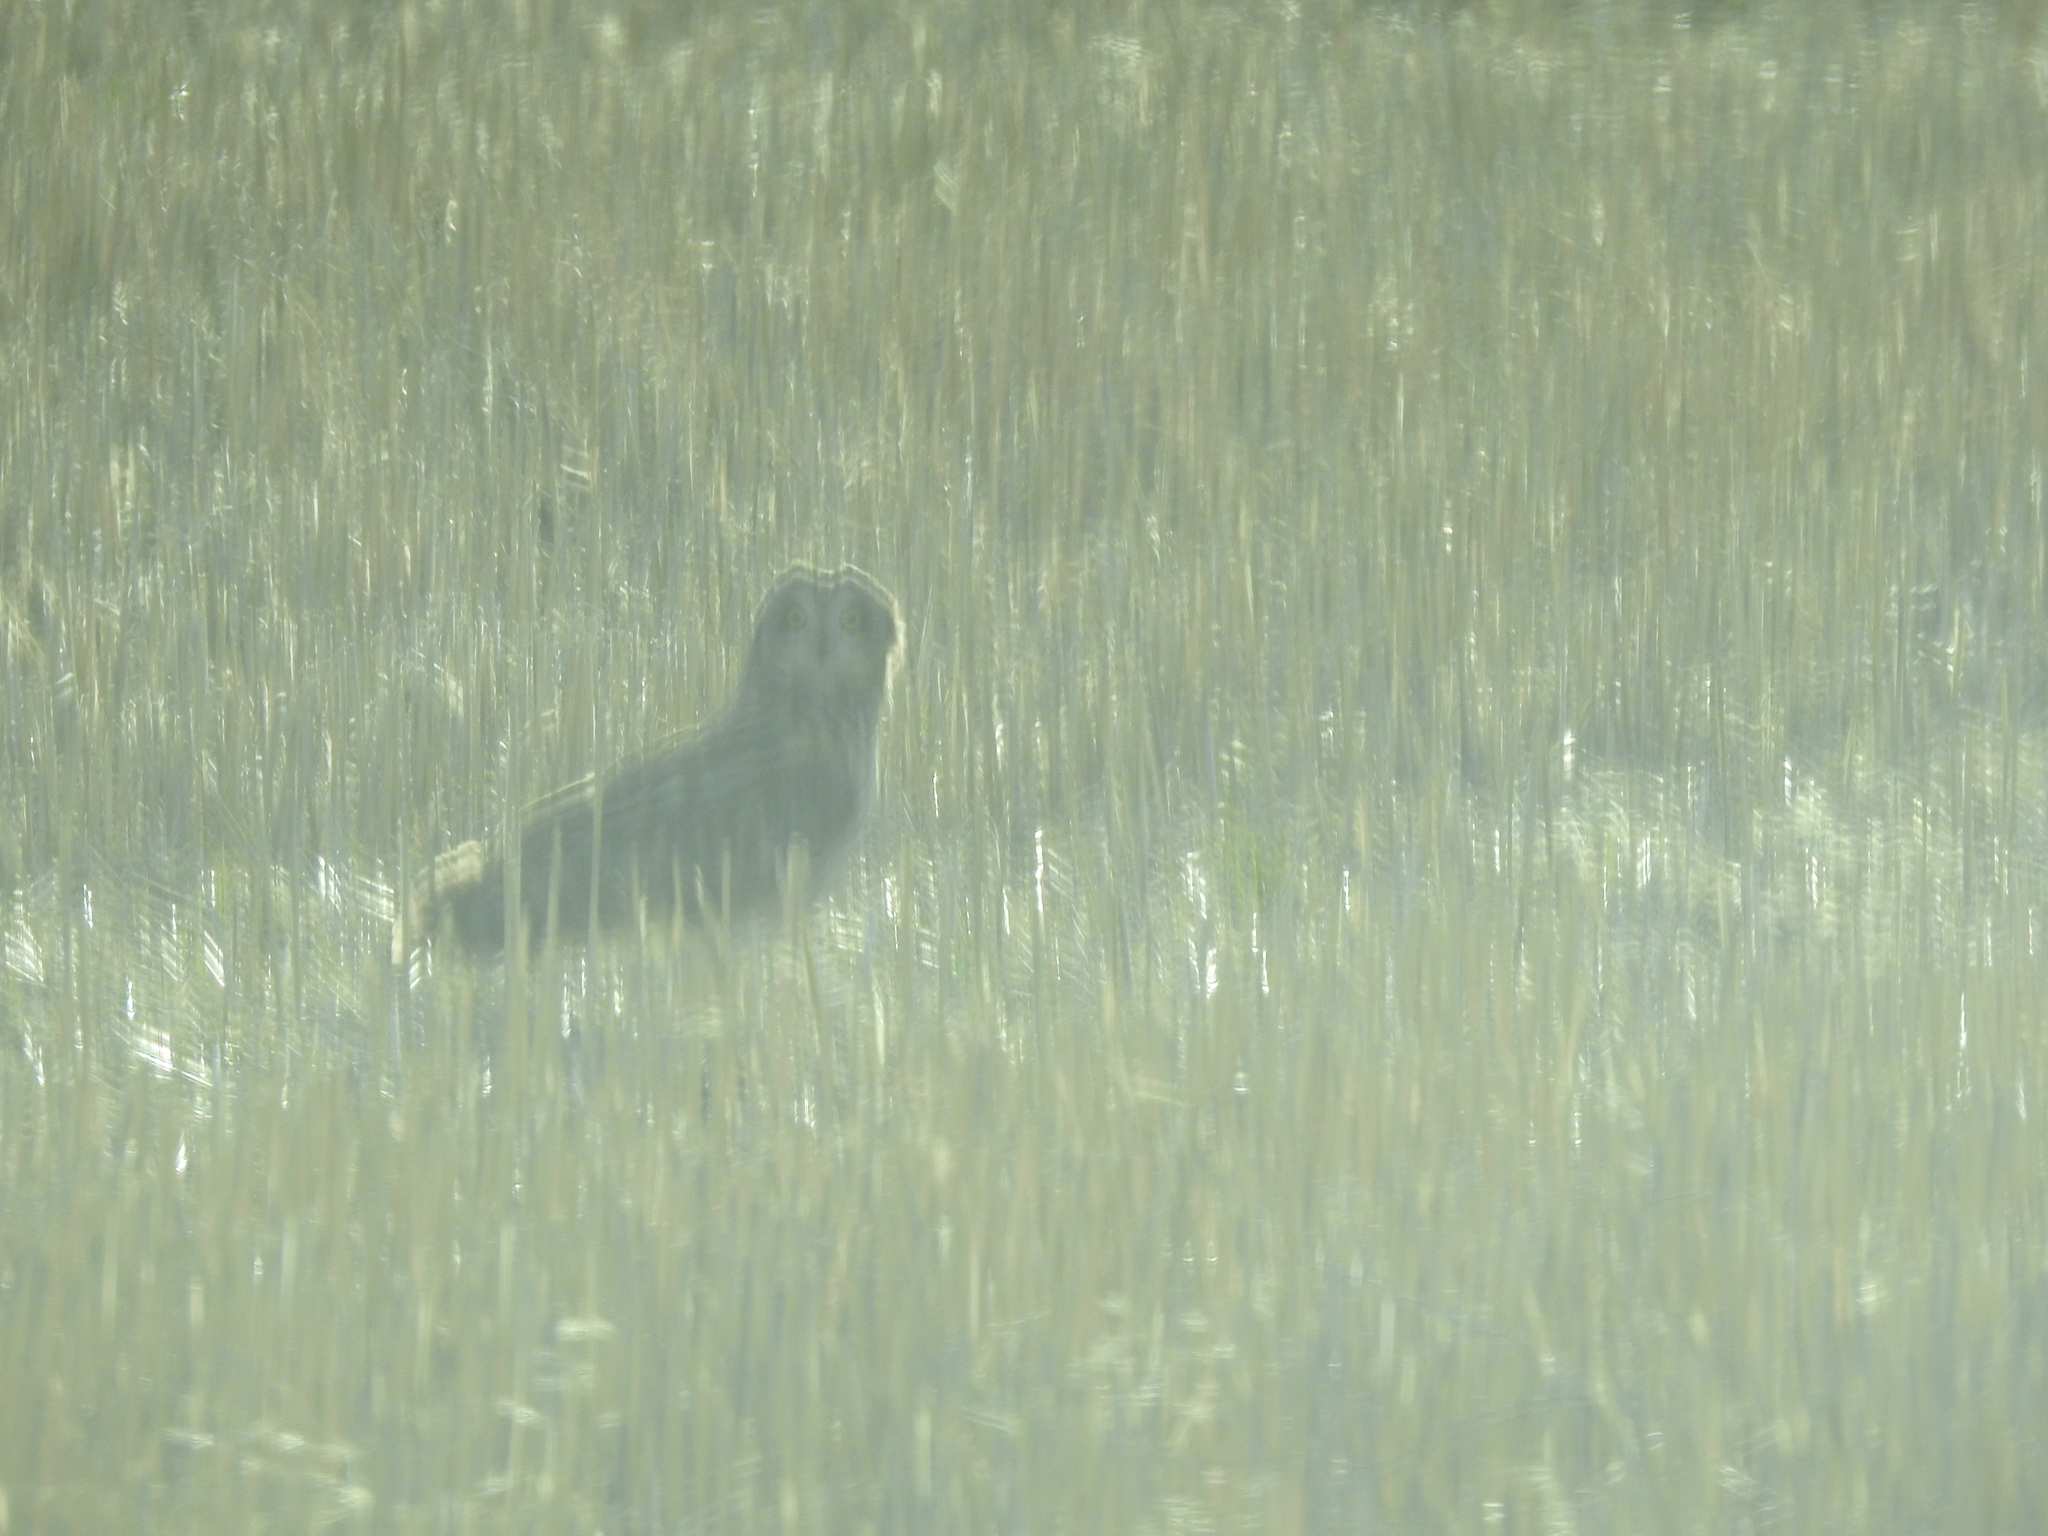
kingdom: Animalia
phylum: Chordata
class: Aves
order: Strigiformes
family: Strigidae
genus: Asio
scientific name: Asio flammeus
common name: Short-eared owl
